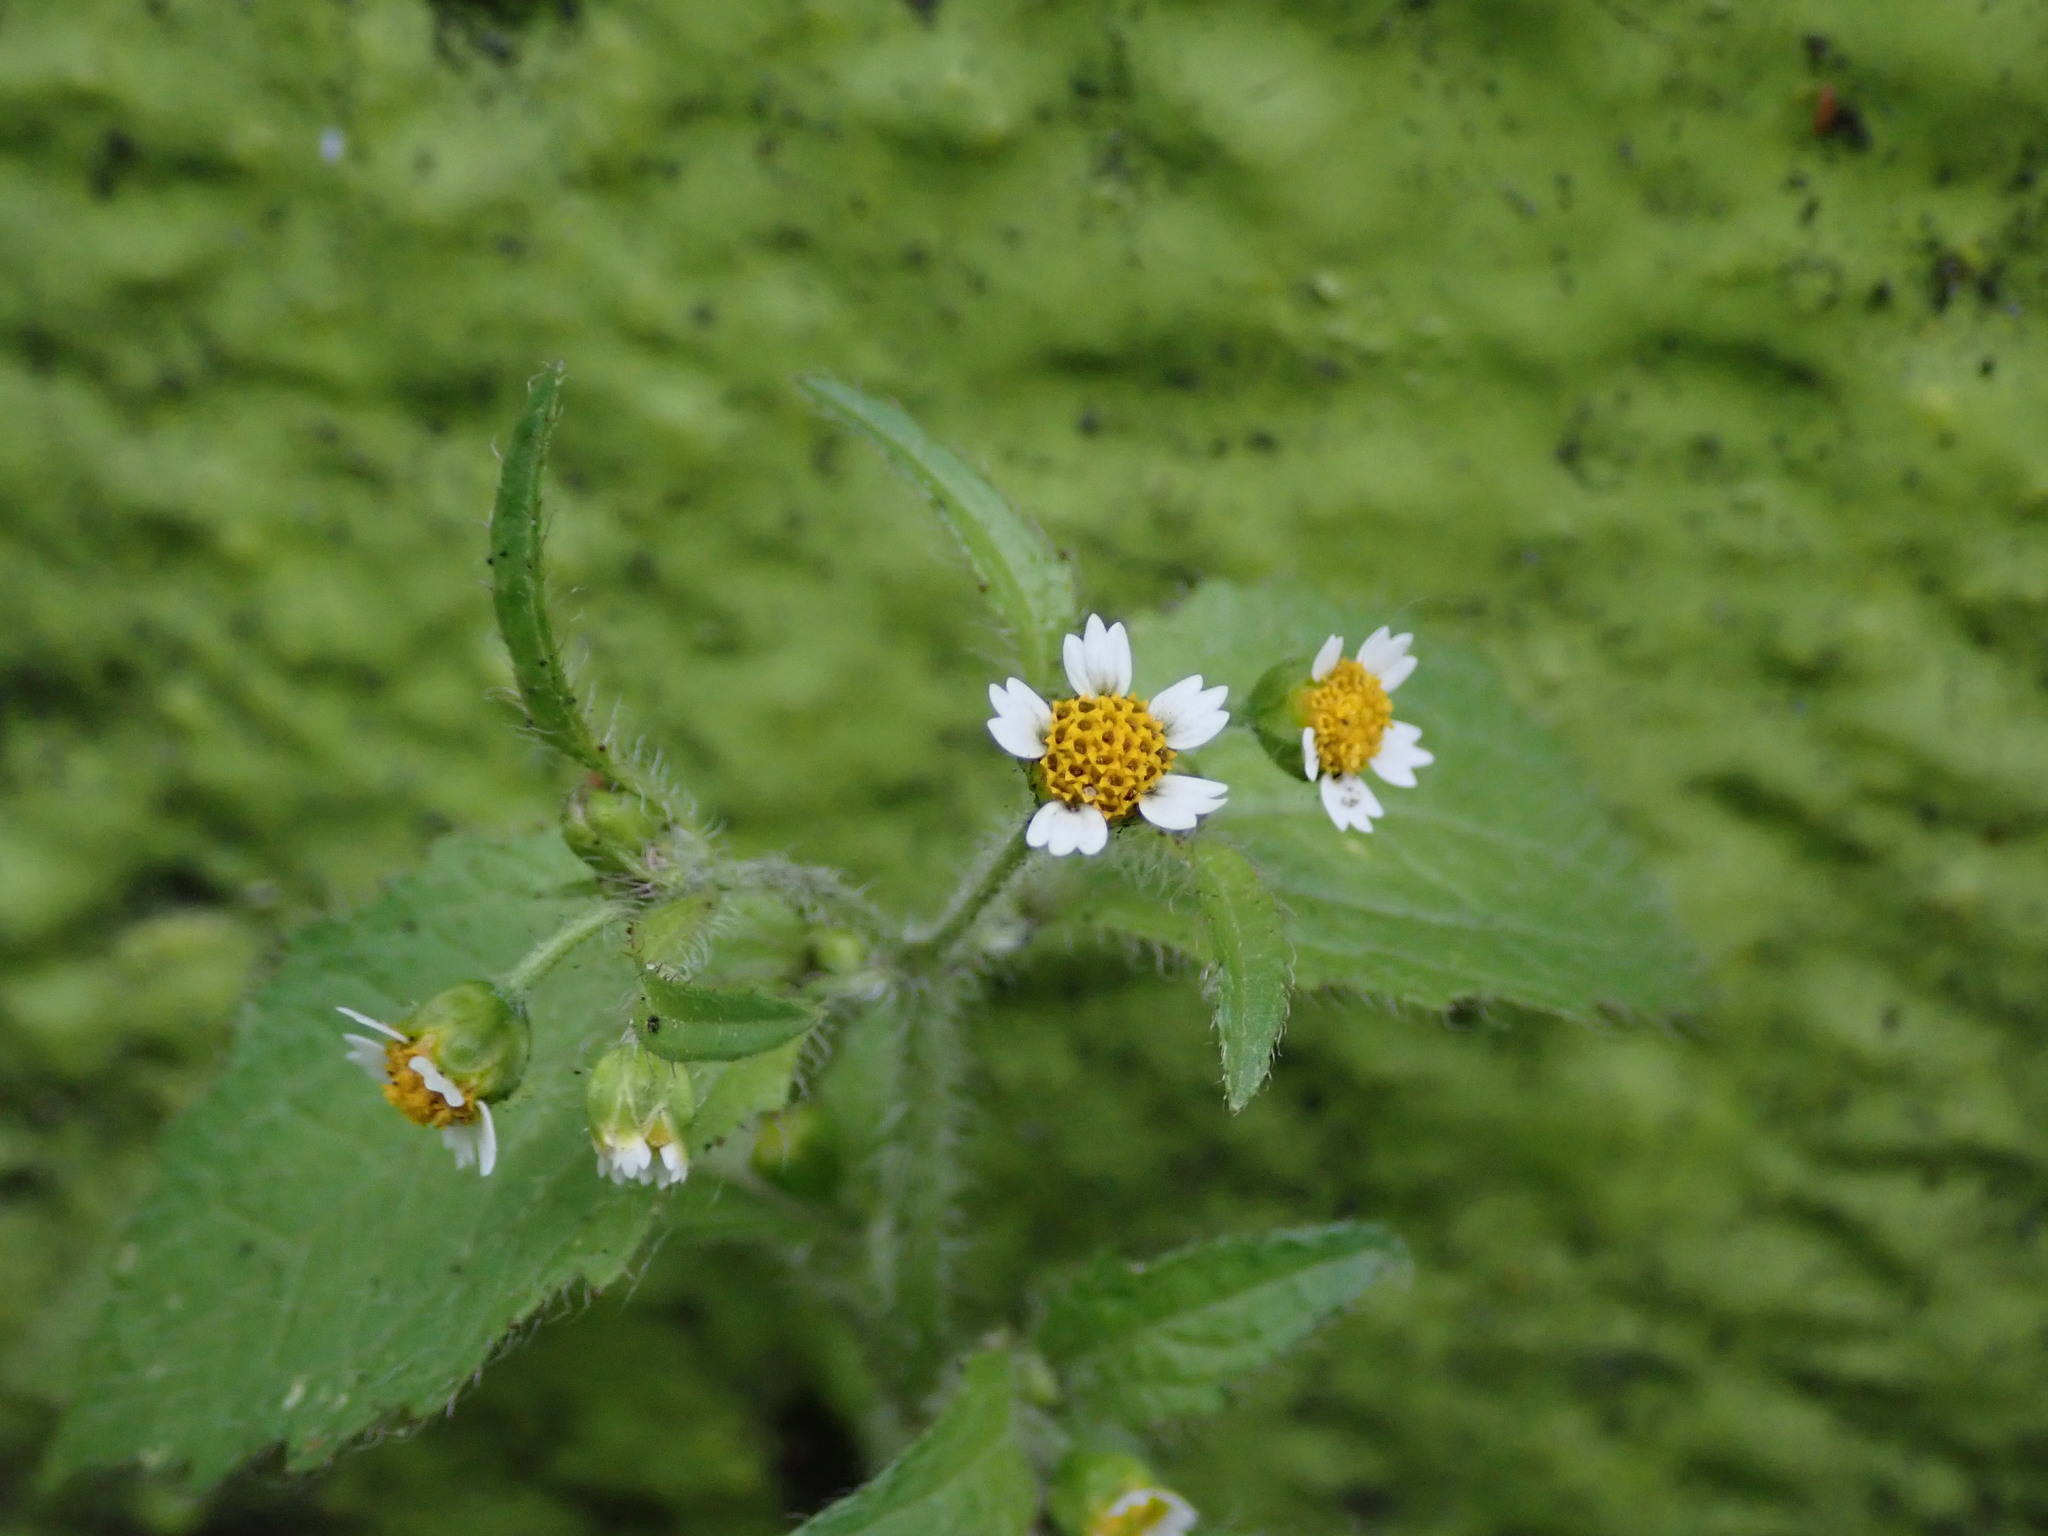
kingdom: Plantae
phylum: Tracheophyta
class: Magnoliopsida
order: Asterales
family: Asteraceae
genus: Galinsoga
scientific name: Galinsoga quadriradiata
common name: Shaggy soldier
